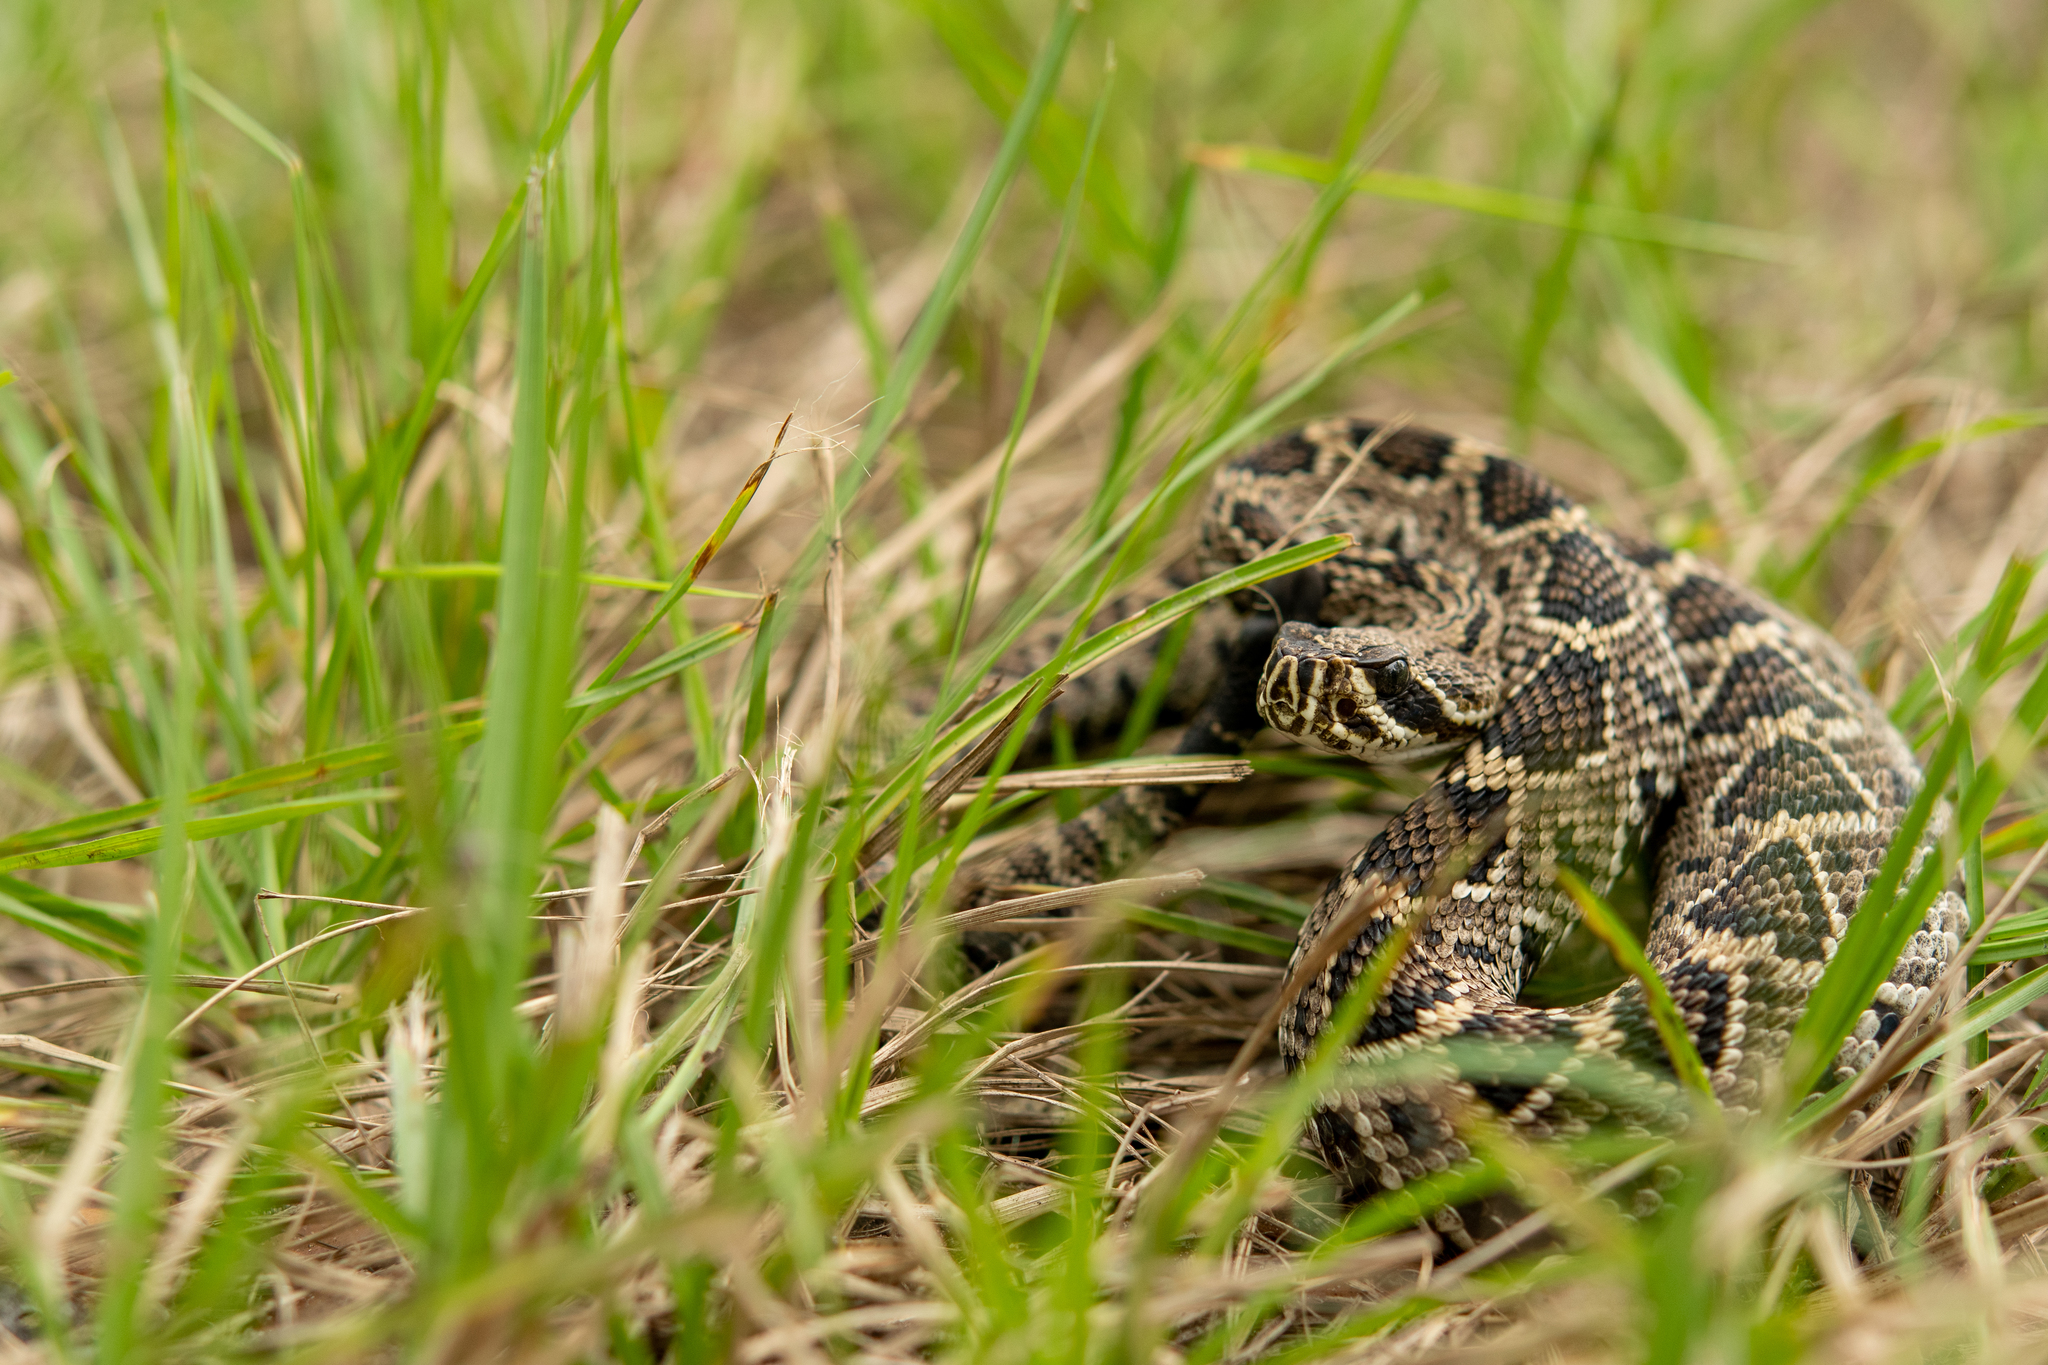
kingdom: Animalia
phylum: Chordata
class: Squamata
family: Viperidae
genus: Crotalus
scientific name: Crotalus adamanteus
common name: Eastern diamondback rattlesnake
